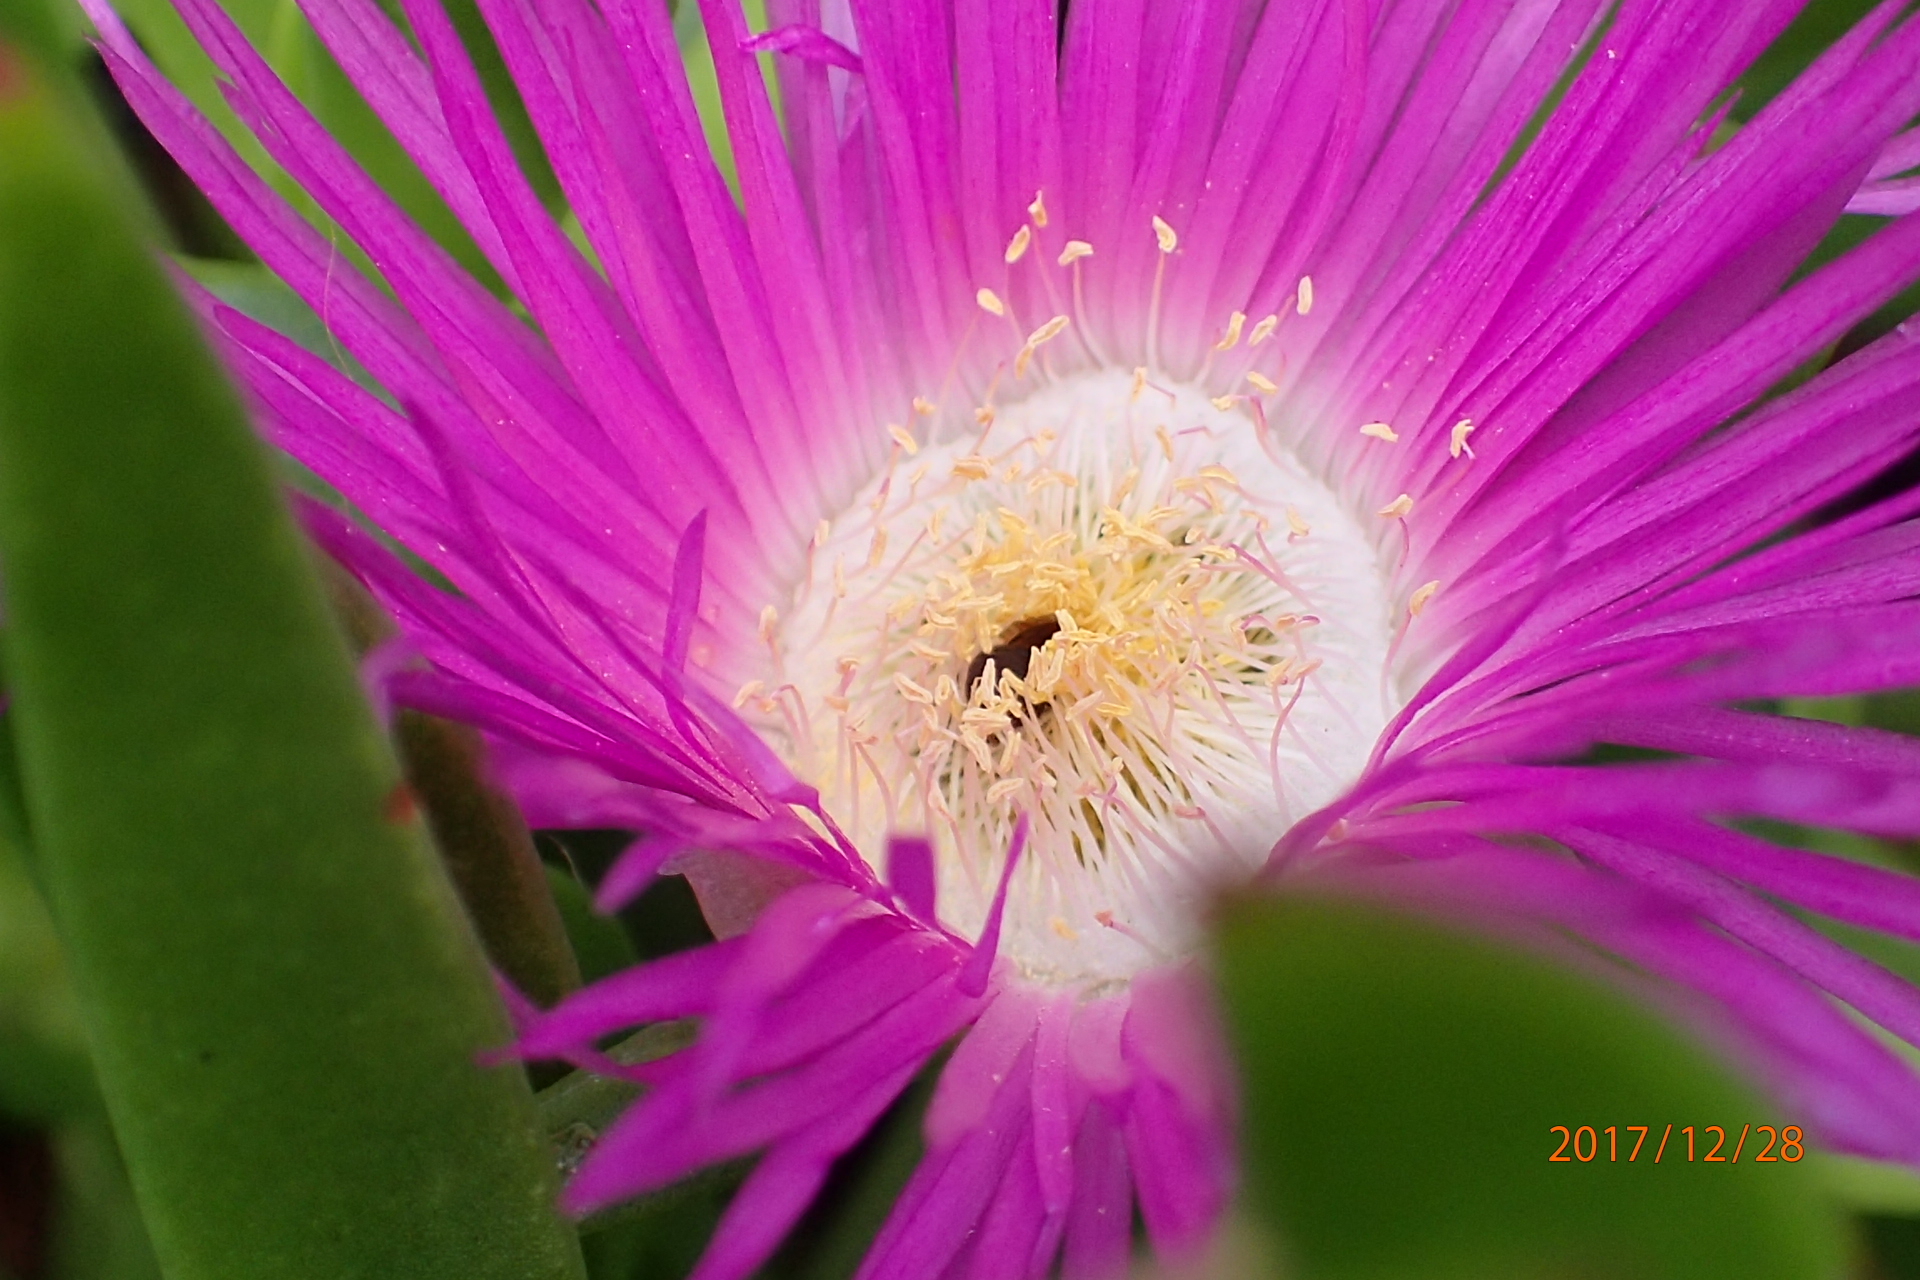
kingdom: Plantae
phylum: Tracheophyta
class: Magnoliopsida
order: Caryophyllales
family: Aizoaceae
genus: Carpobrotus
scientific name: Carpobrotus dimidiatus
